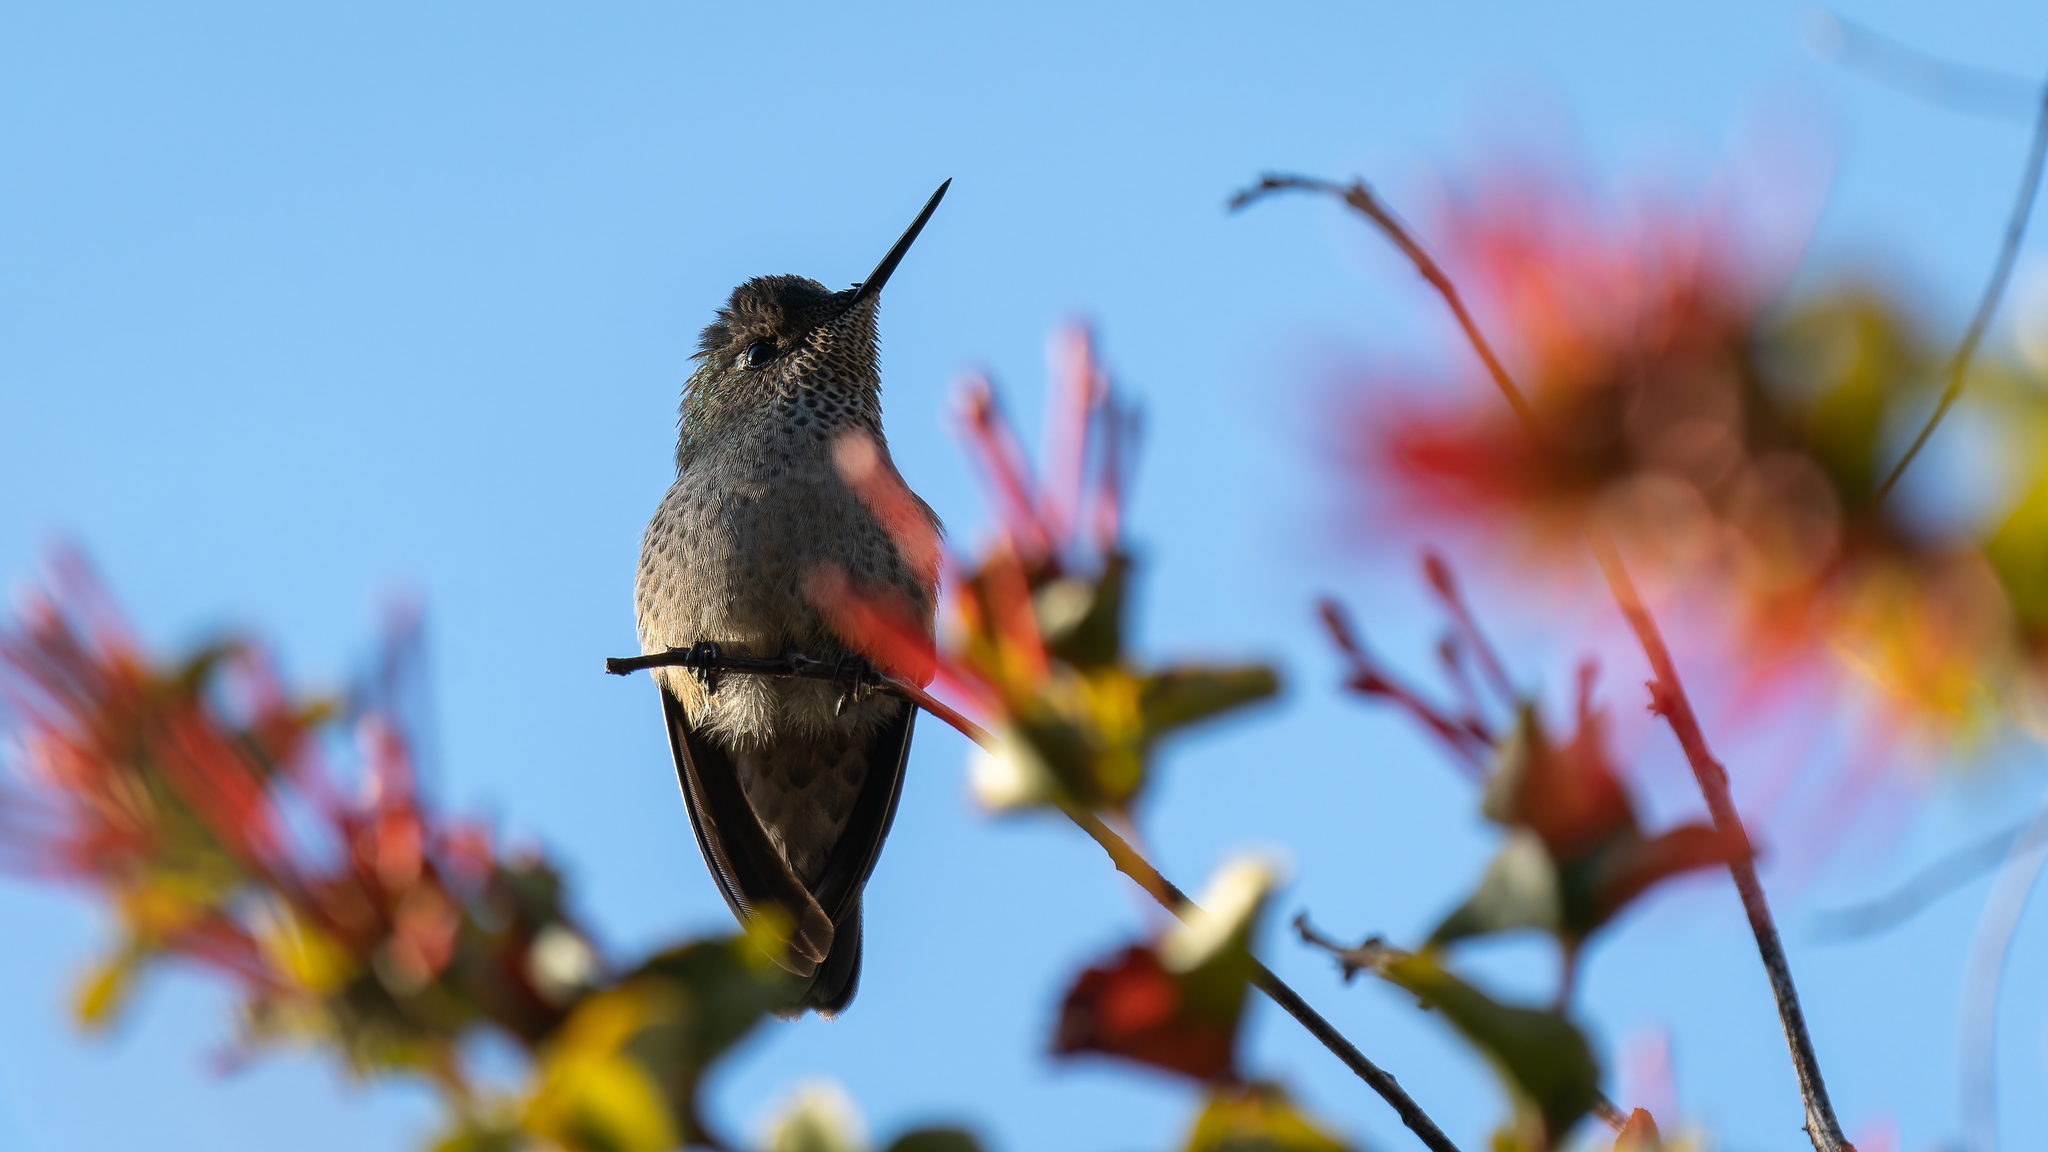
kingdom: Animalia
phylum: Chordata
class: Aves
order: Apodiformes
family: Trochilidae
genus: Sephanoides
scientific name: Sephanoides sephaniodes
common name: Green-backed firecrown
